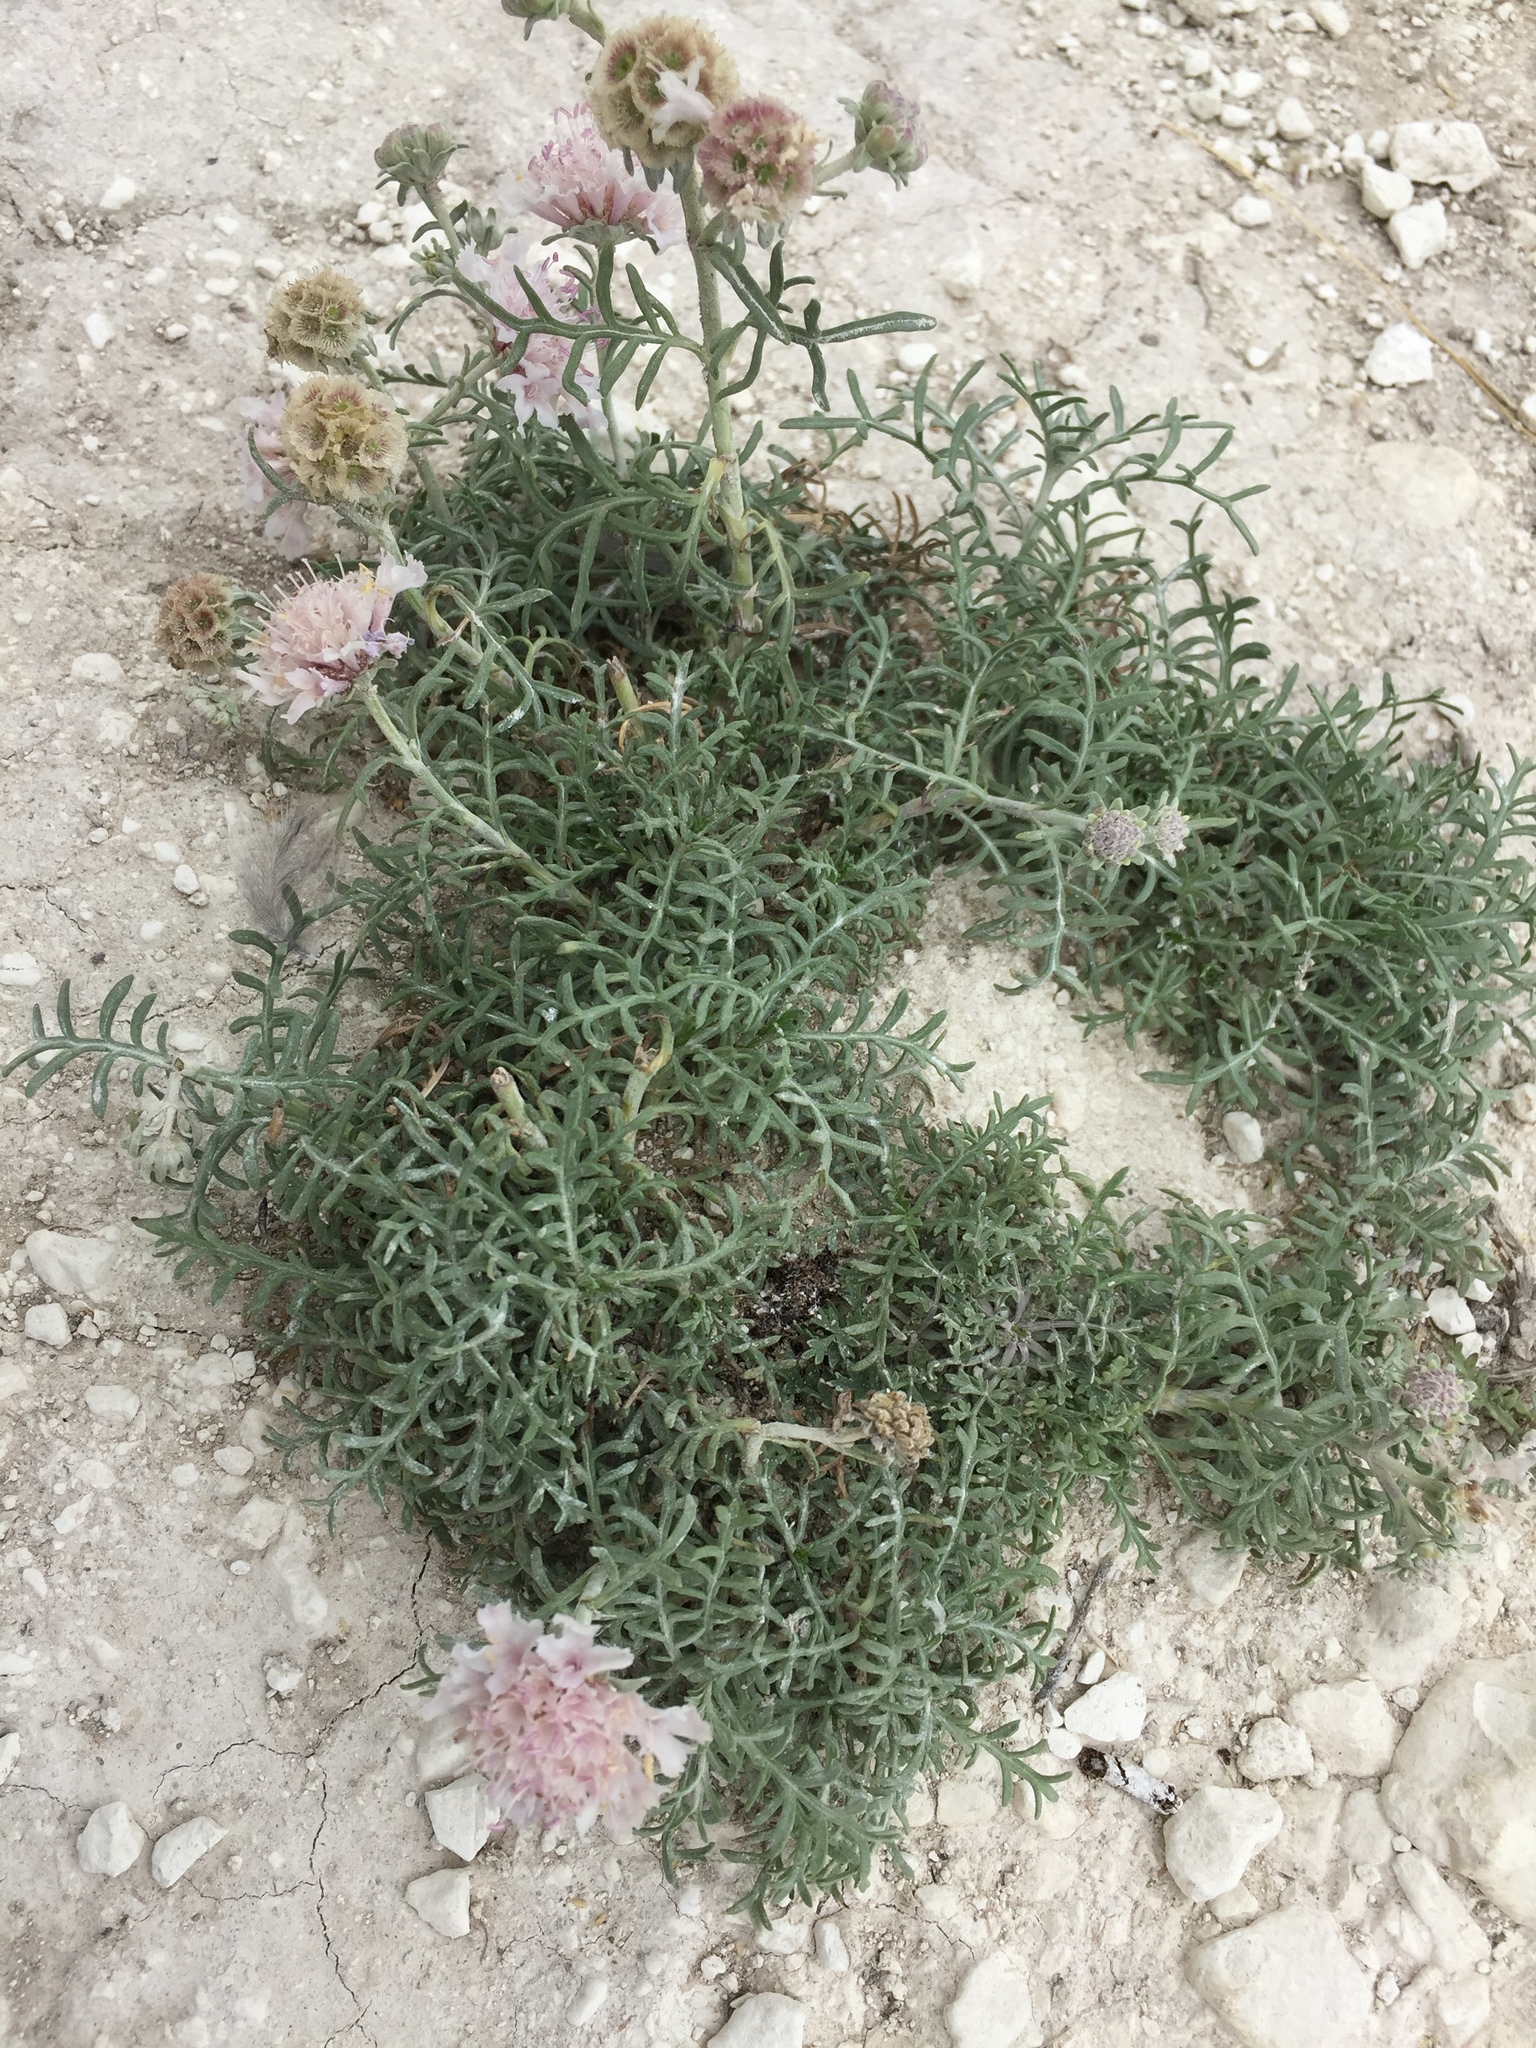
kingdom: Plantae
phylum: Tracheophyta
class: Magnoliopsida
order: Dipsacales
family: Caprifoliaceae
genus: Lomelosia
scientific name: Lomelosia isetensis
